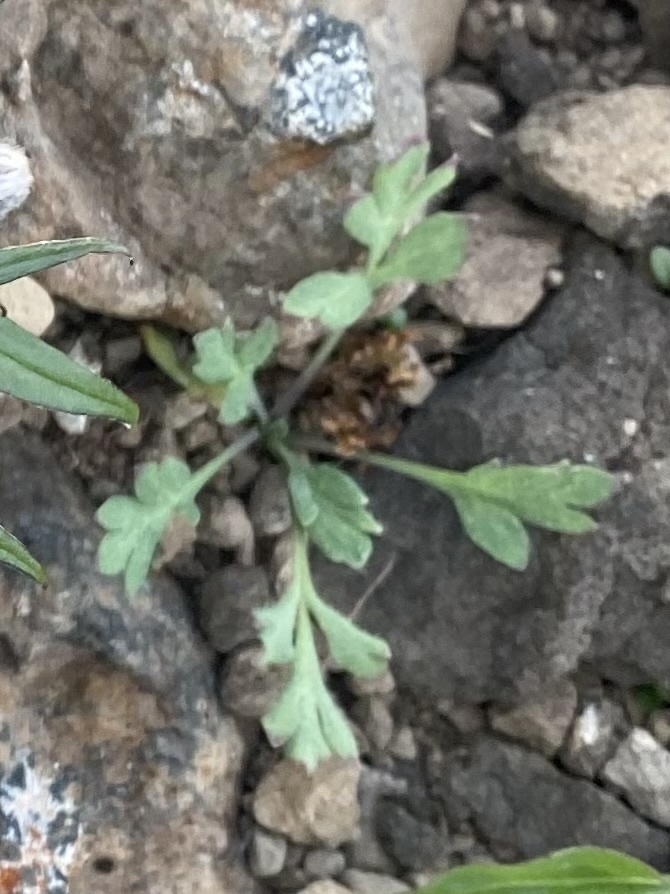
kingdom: Plantae
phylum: Tracheophyta
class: Magnoliopsida
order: Ranunculales
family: Papaveraceae
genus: Papaver
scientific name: Papaver
